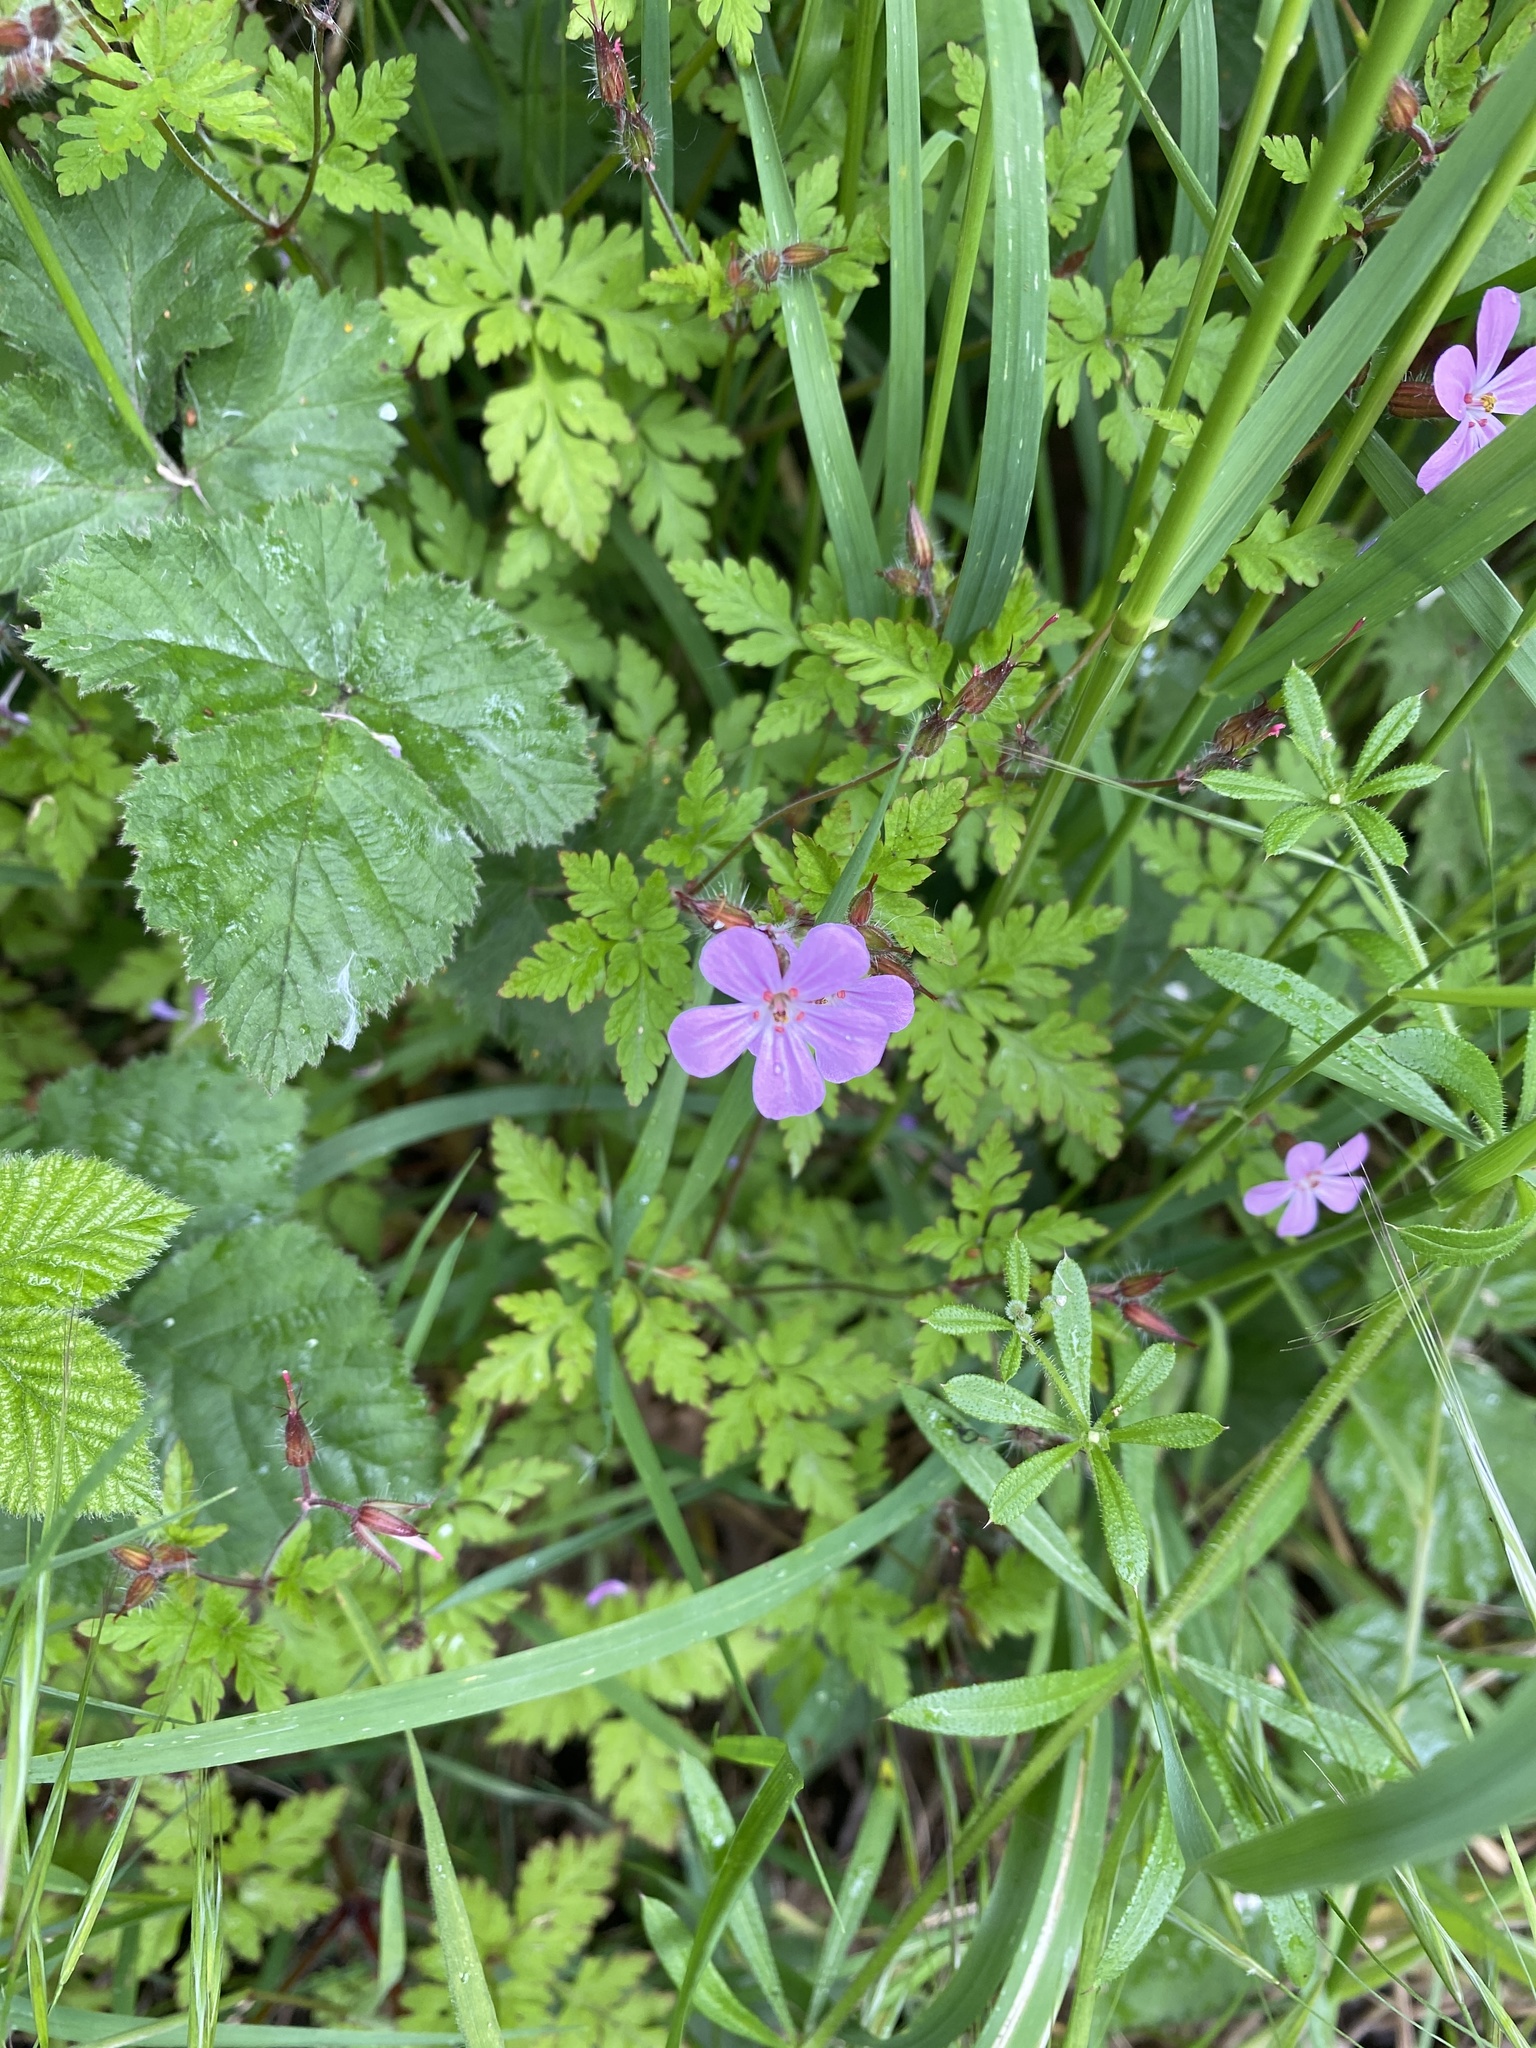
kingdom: Plantae
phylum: Tracheophyta
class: Magnoliopsida
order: Geraniales
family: Geraniaceae
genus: Geranium
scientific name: Geranium robertianum
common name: Herb-robert
